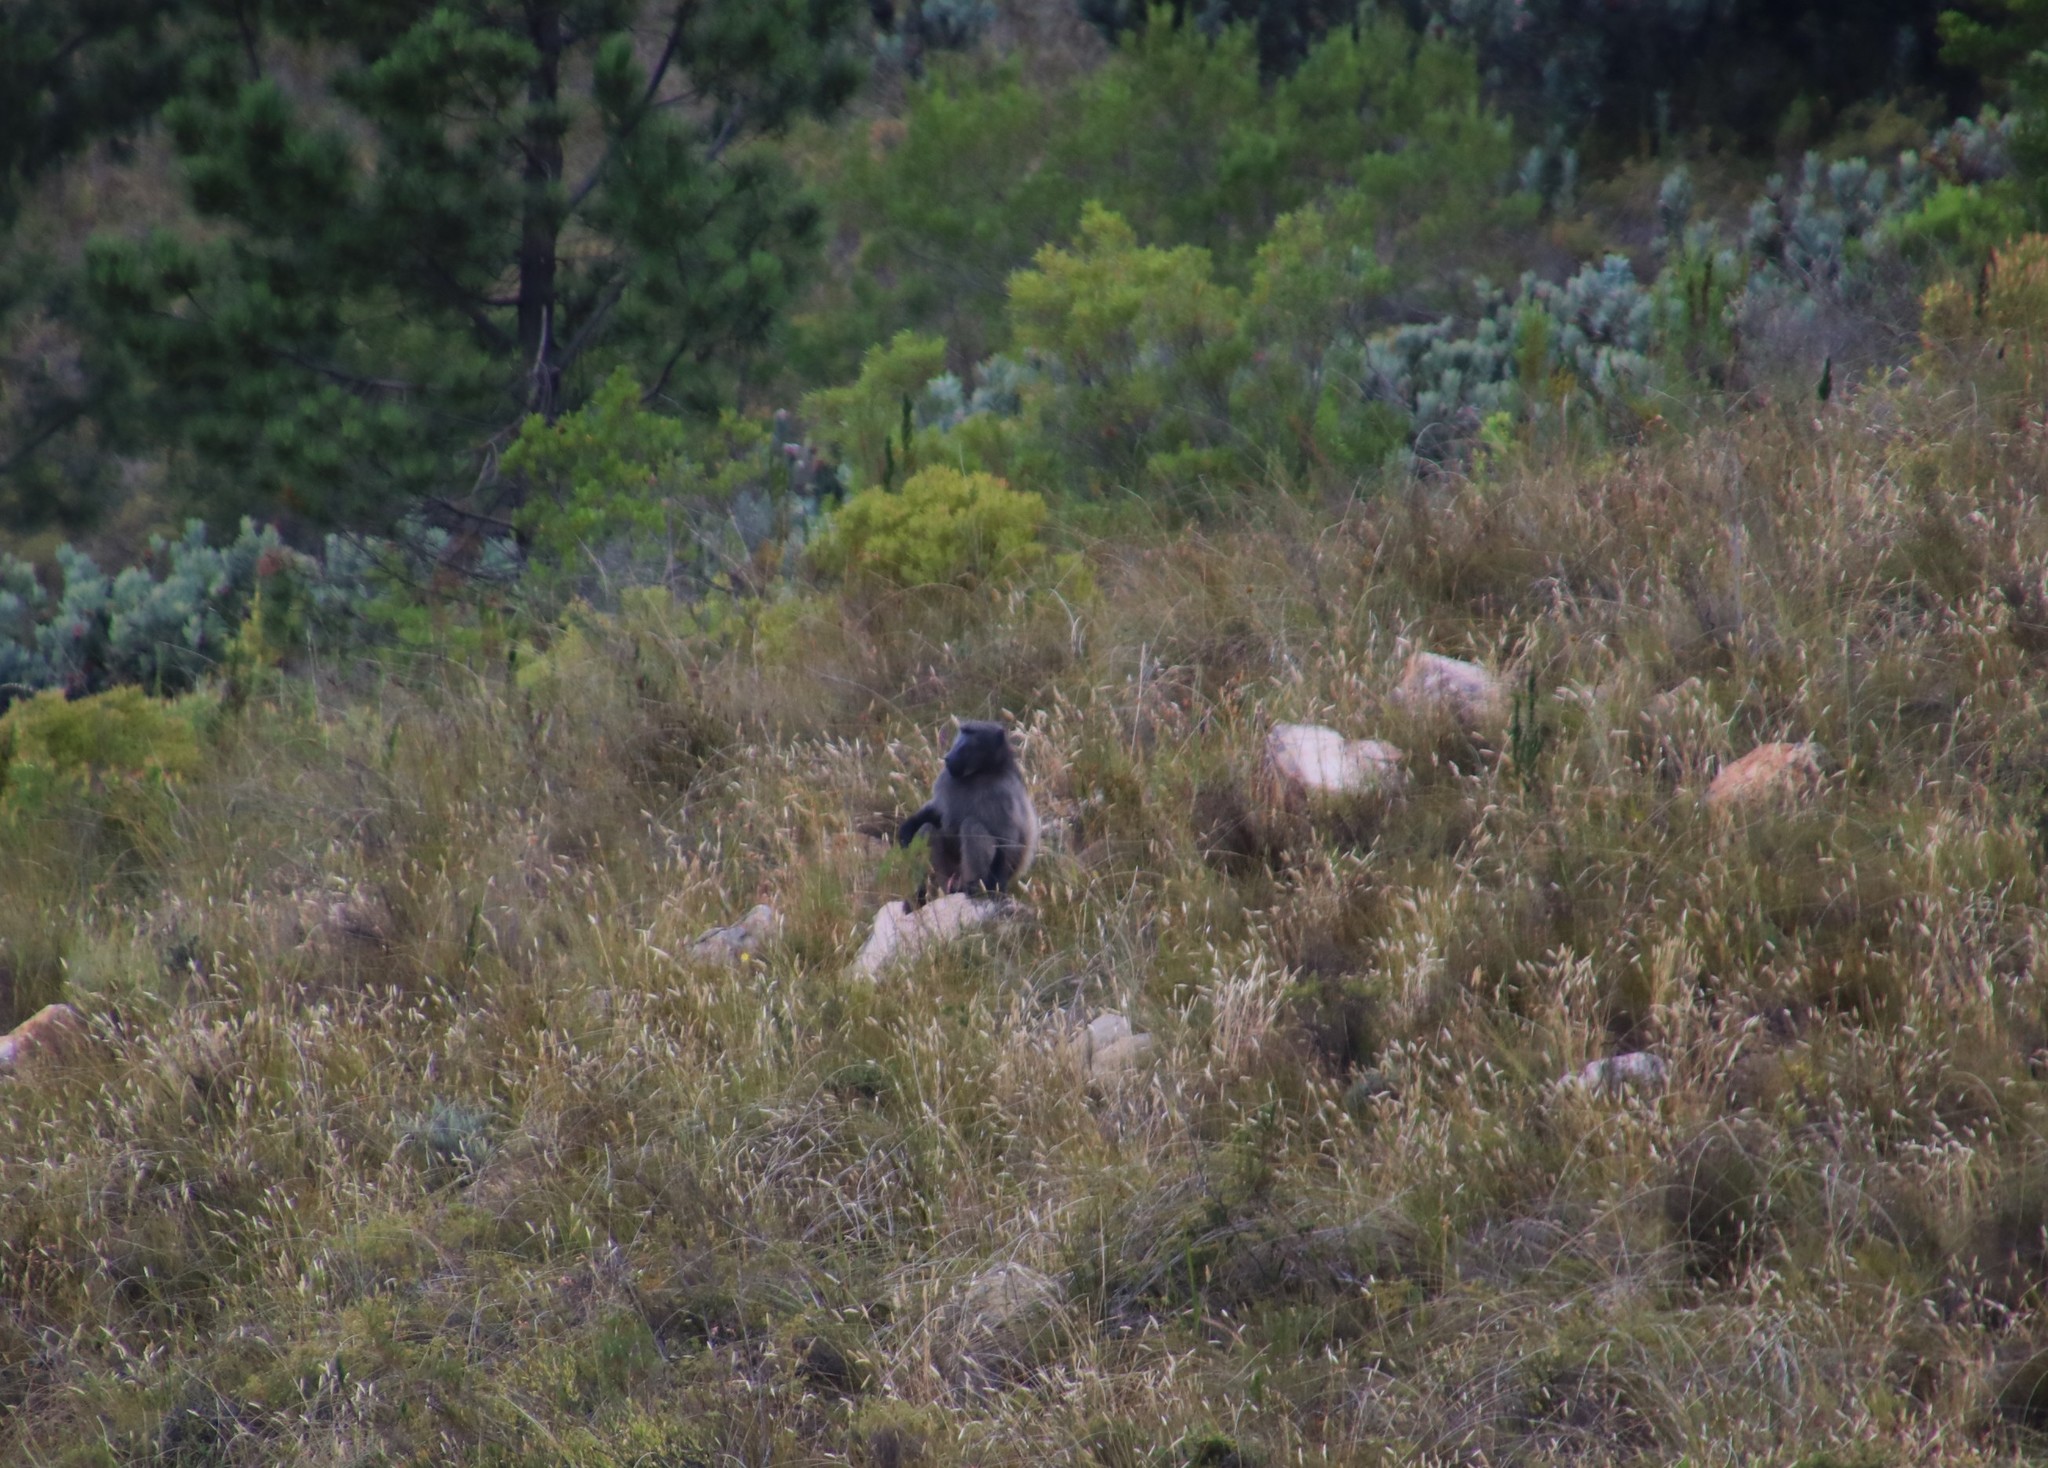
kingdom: Animalia
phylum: Chordata
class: Mammalia
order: Primates
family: Cercopithecidae
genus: Papio
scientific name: Papio ursinus
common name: Chacma baboon
